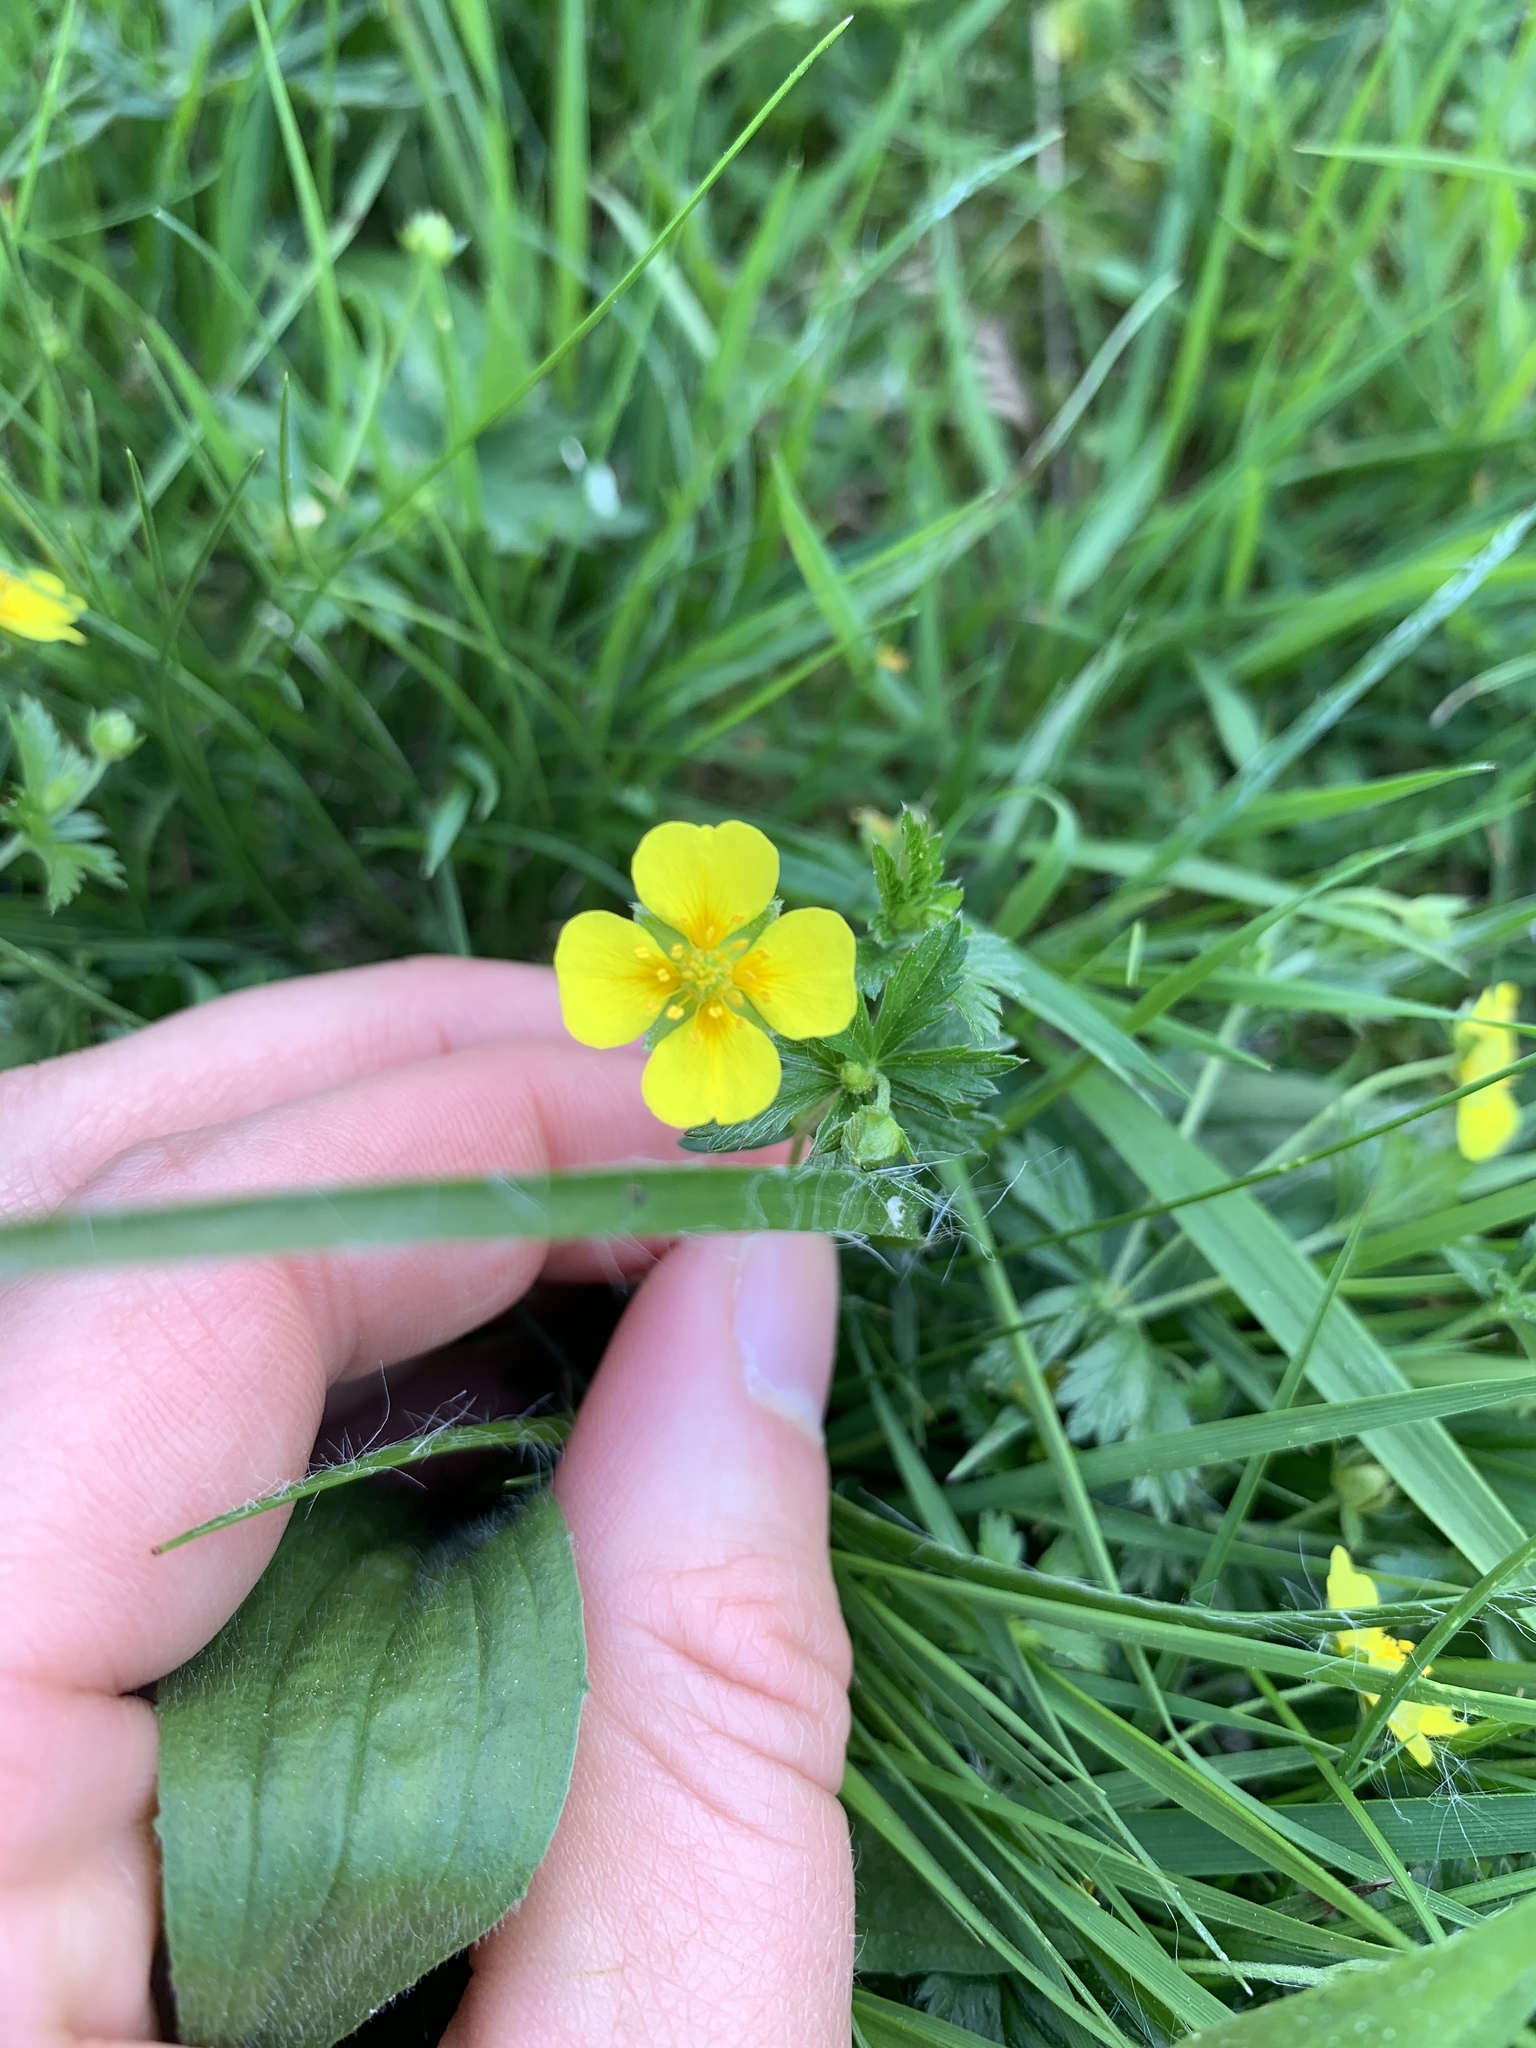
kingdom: Plantae
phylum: Tracheophyta
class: Magnoliopsida
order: Rosales
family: Rosaceae
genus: Potentilla
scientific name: Potentilla erecta
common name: Tormentil
